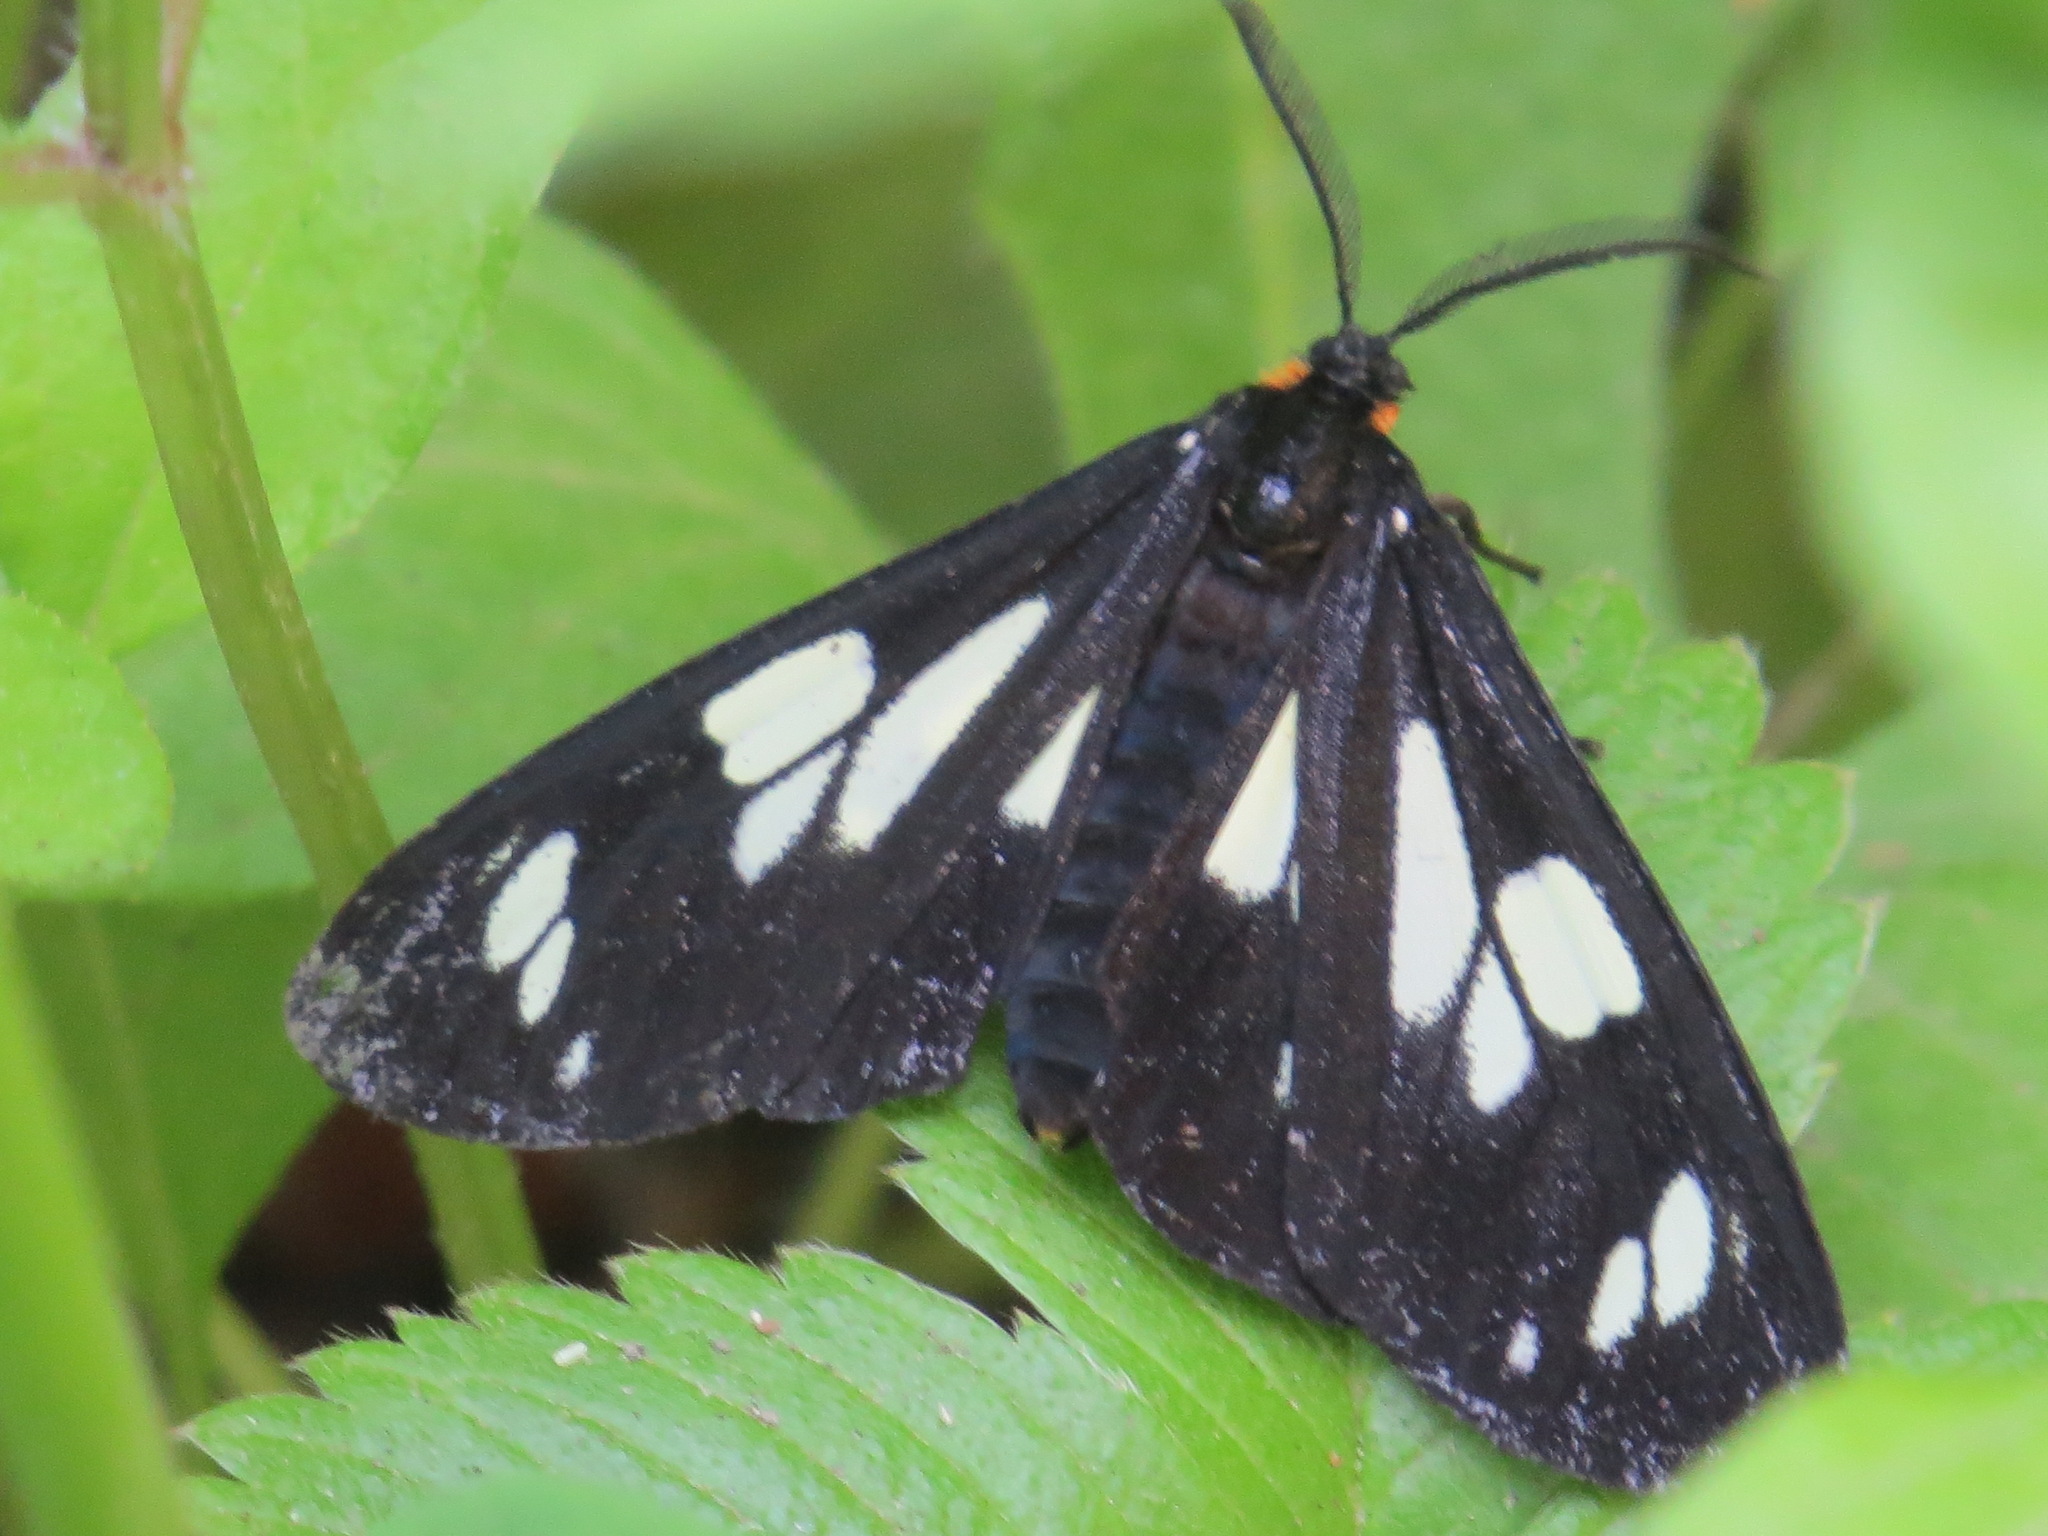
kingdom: Animalia
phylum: Arthropoda
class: Insecta
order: Lepidoptera
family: Erebidae
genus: Gnophaela
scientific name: Gnophaela latipennis
